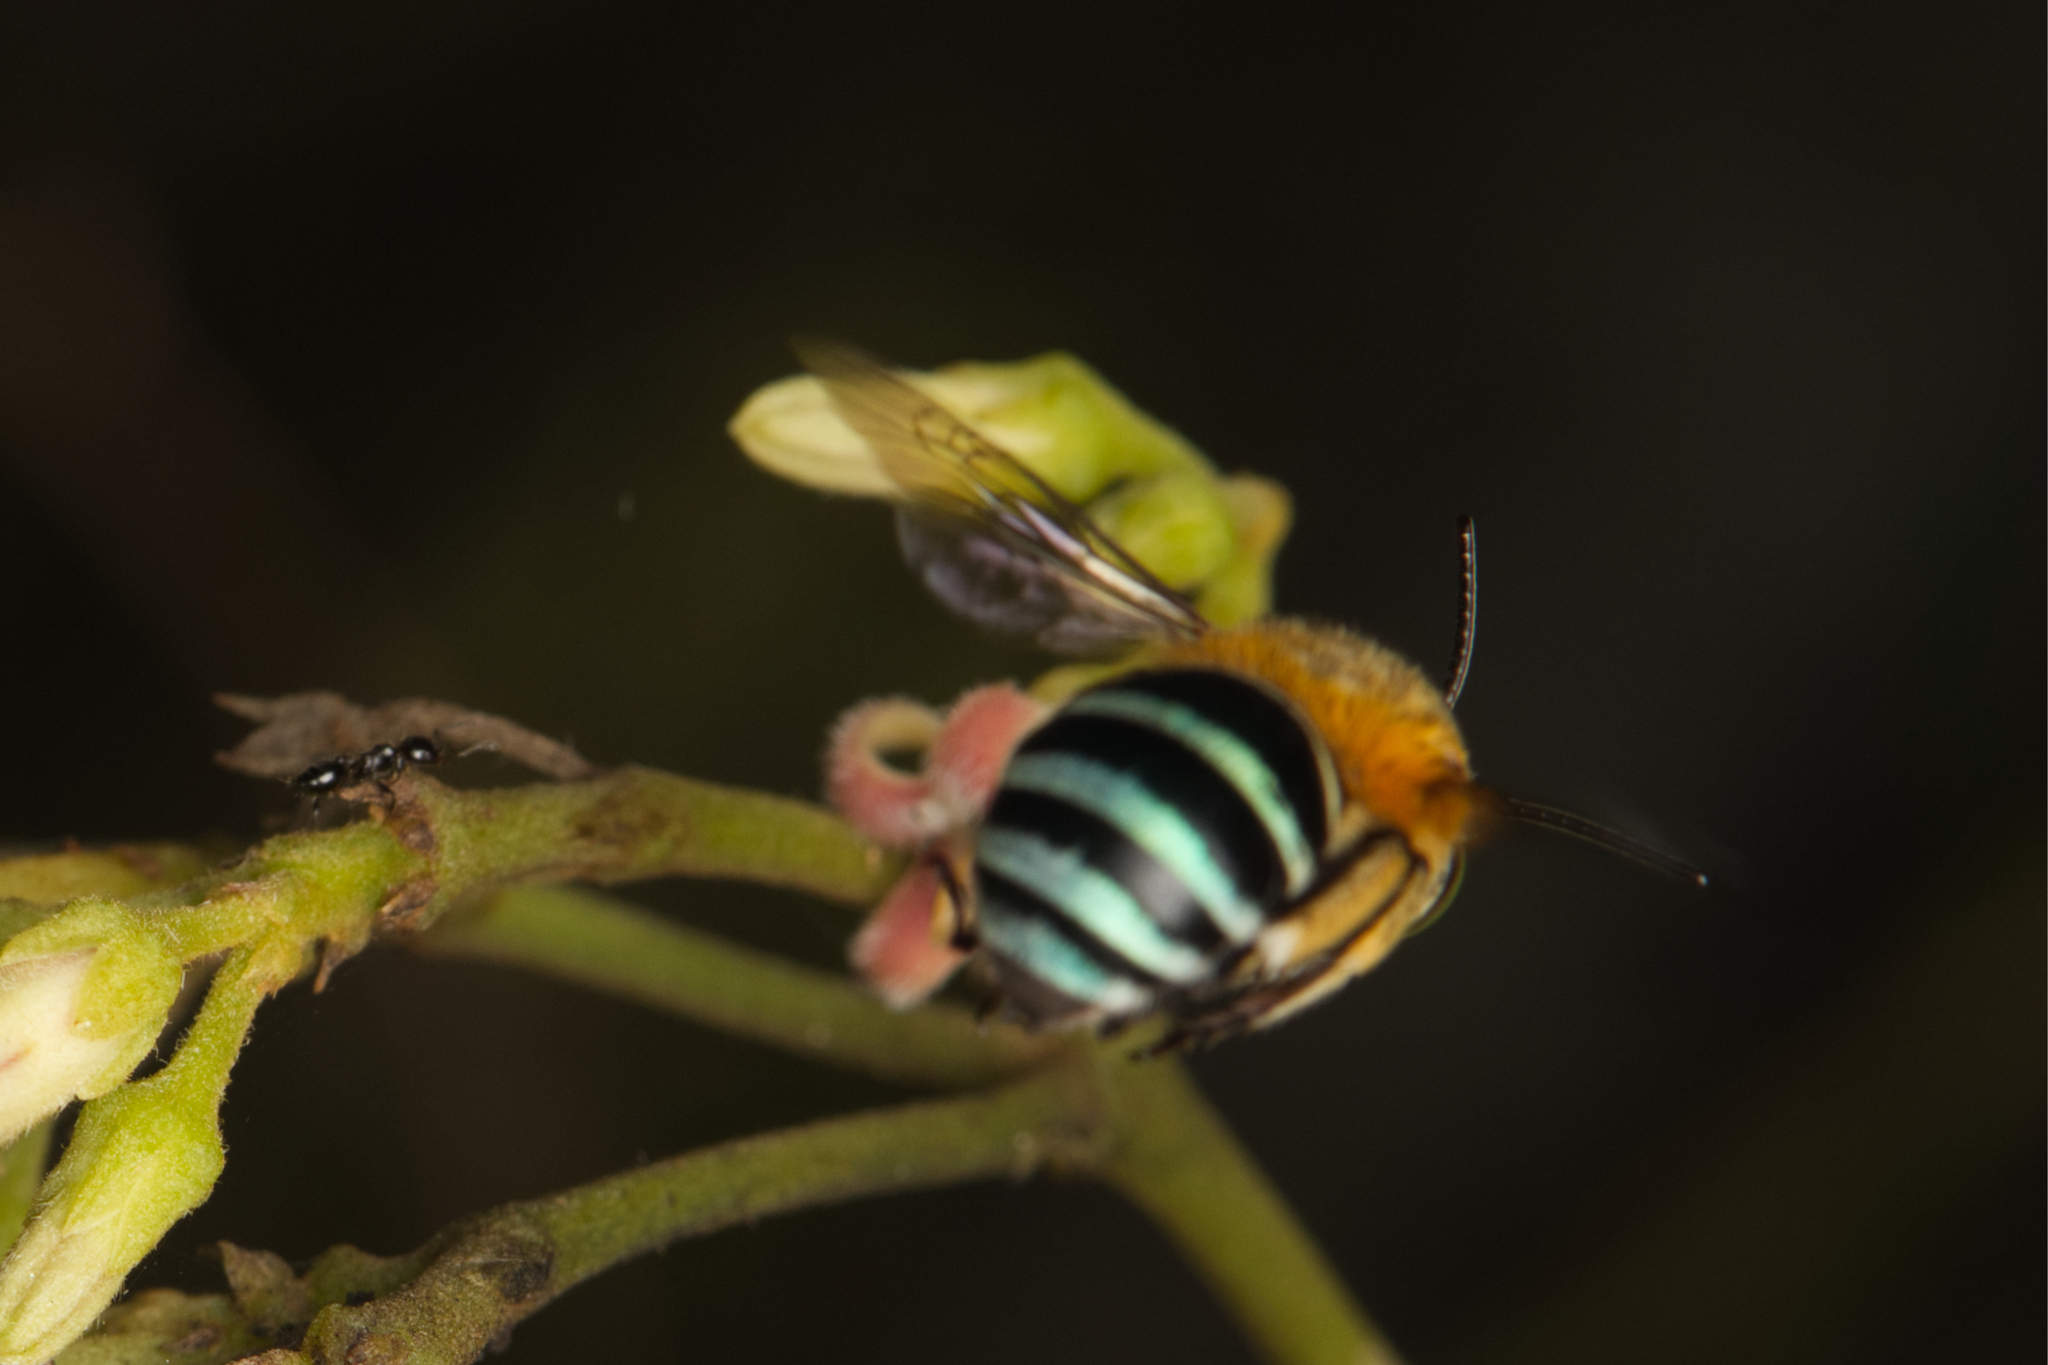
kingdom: Animalia
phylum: Arthropoda
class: Insecta
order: Hymenoptera
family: Apidae
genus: Amegilla
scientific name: Amegilla cingulata
